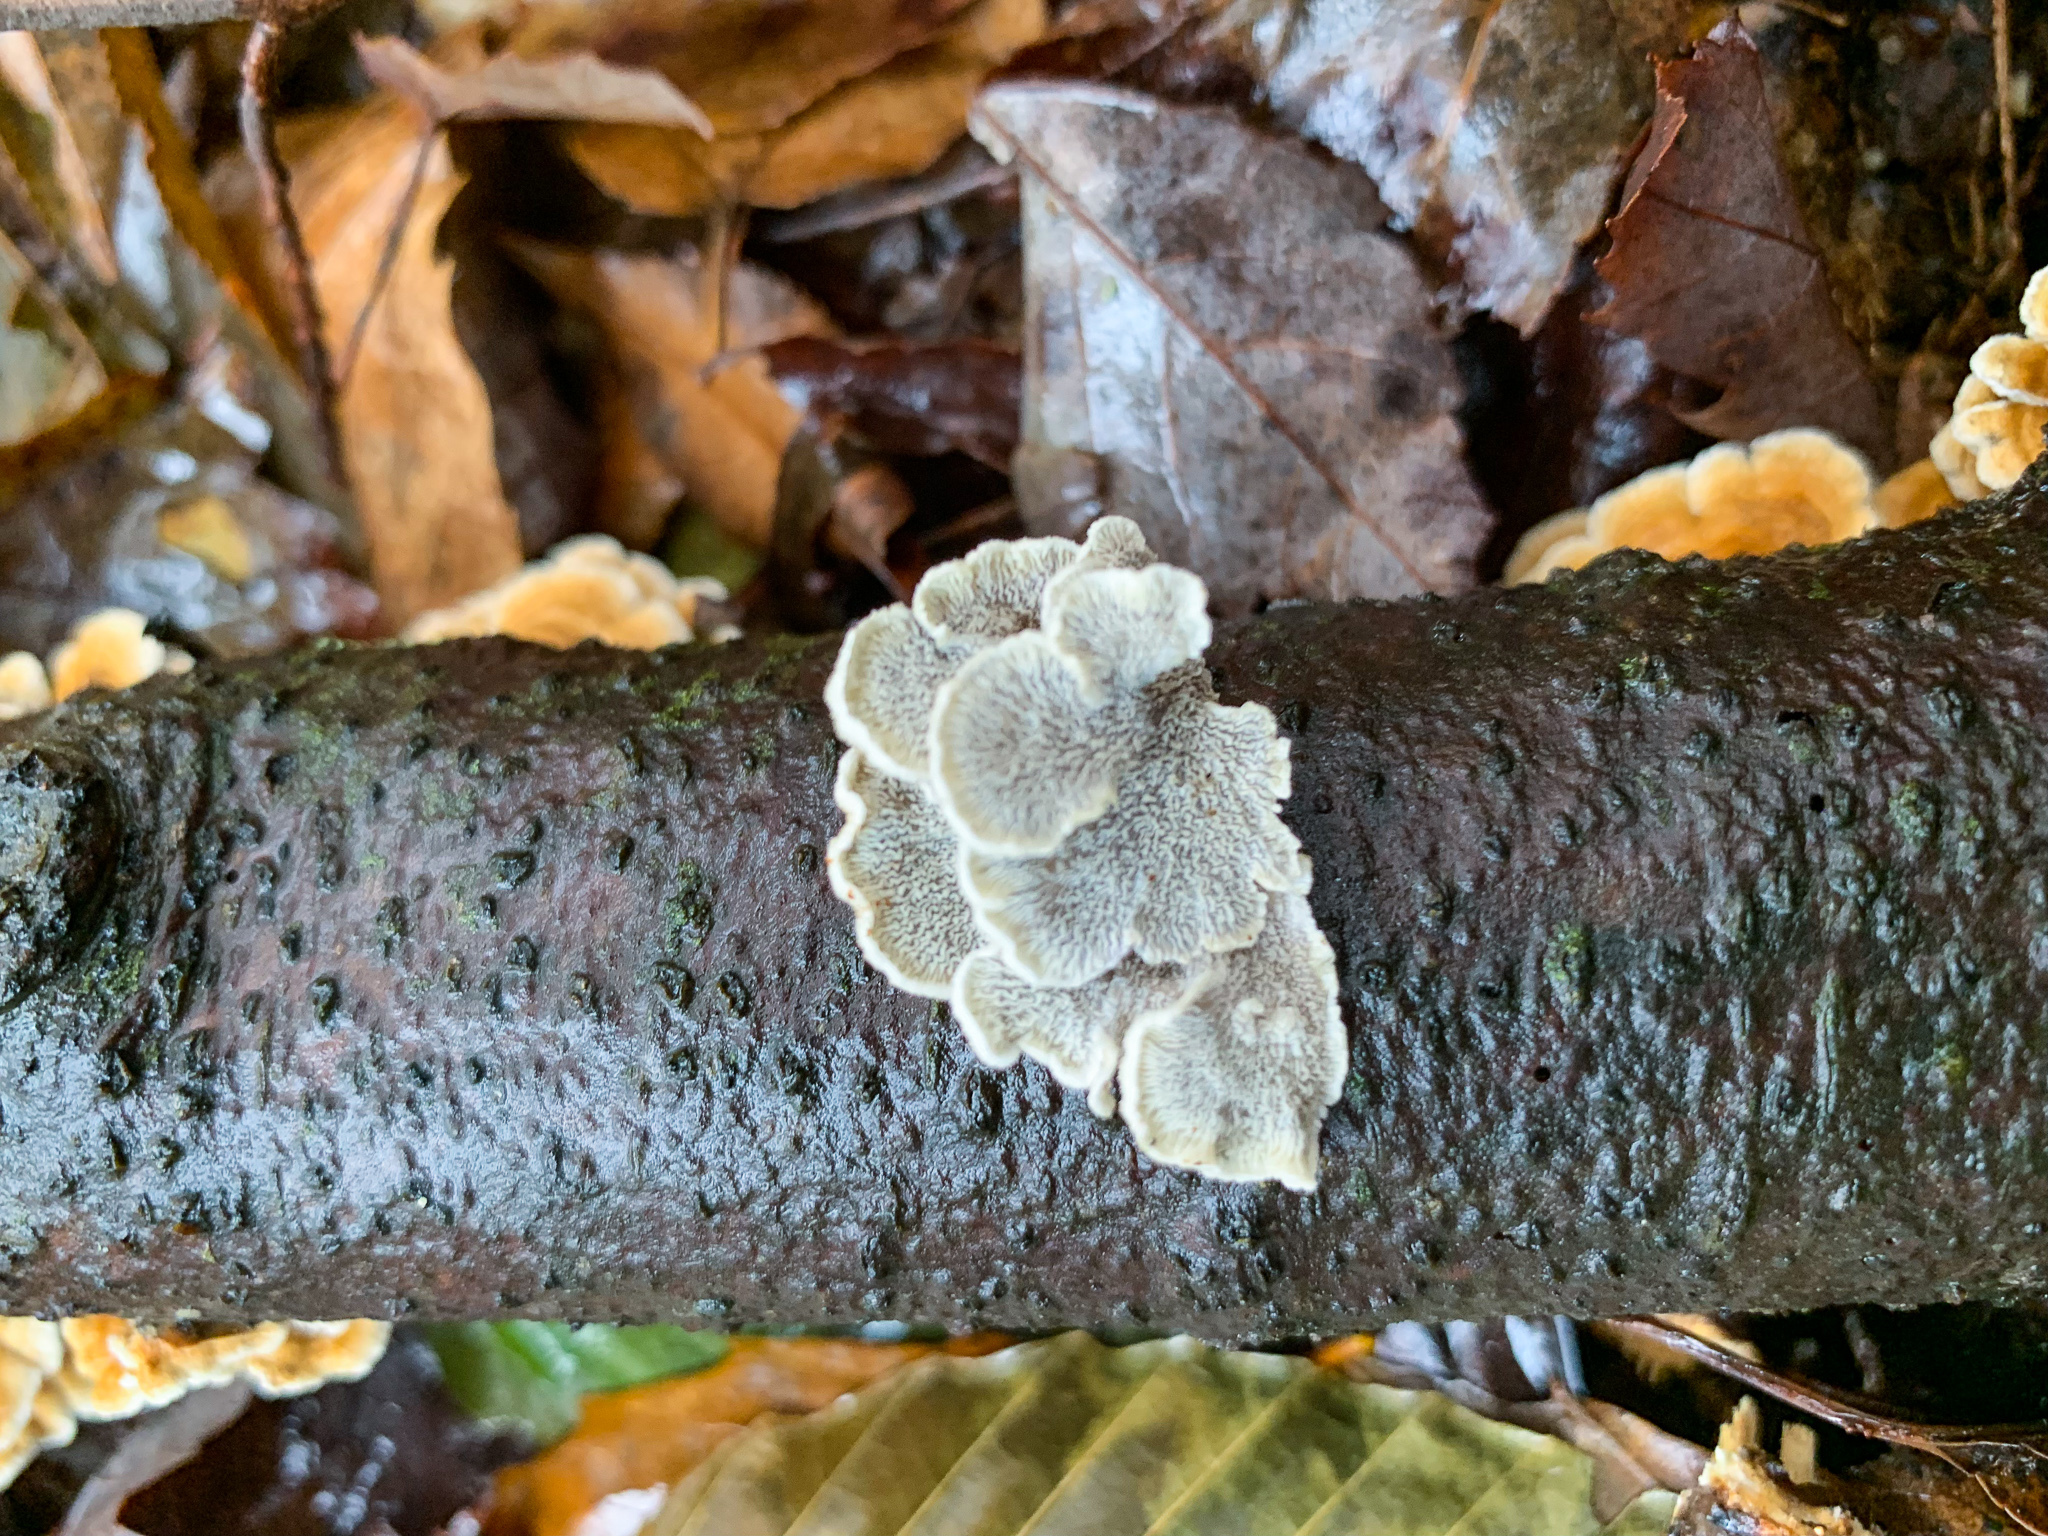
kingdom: Fungi
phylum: Basidiomycota
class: Agaricomycetes
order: Amylocorticiales
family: Amylocorticiaceae
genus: Plicaturopsis
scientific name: Plicaturopsis crispa
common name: Crimped gill
